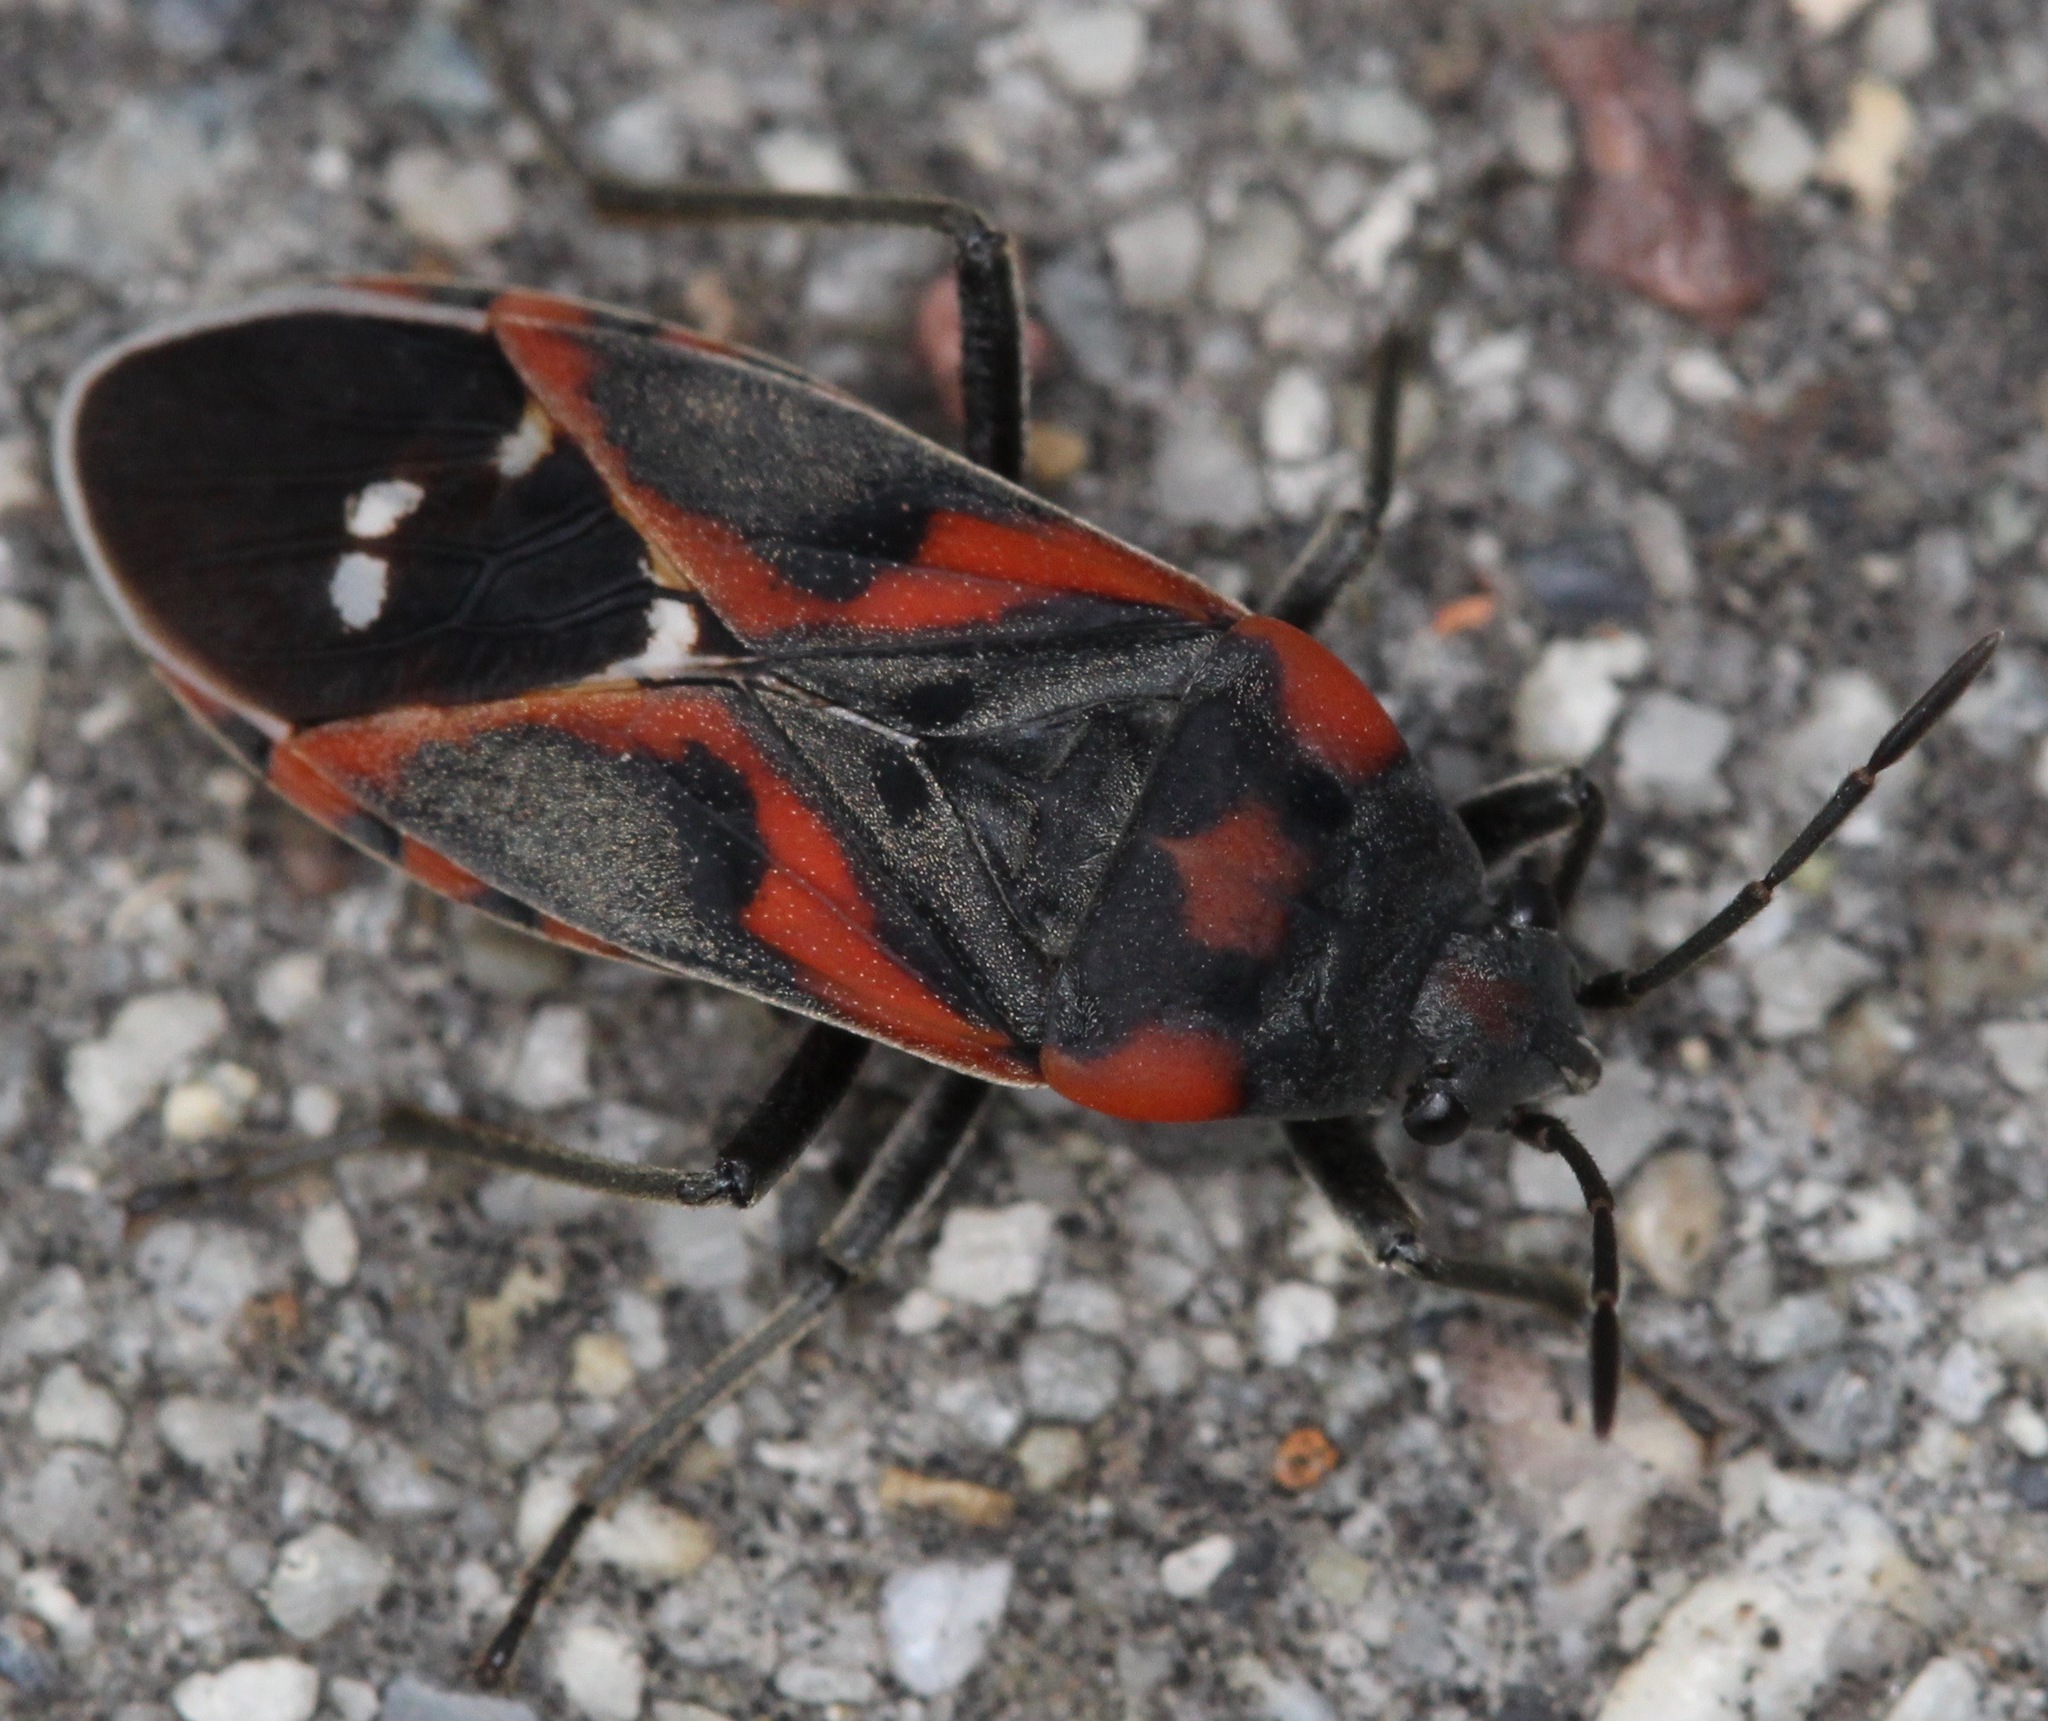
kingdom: Animalia
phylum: Arthropoda
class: Insecta
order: Hemiptera
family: Lygaeidae
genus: Lygaeus
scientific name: Lygaeus kalmii
